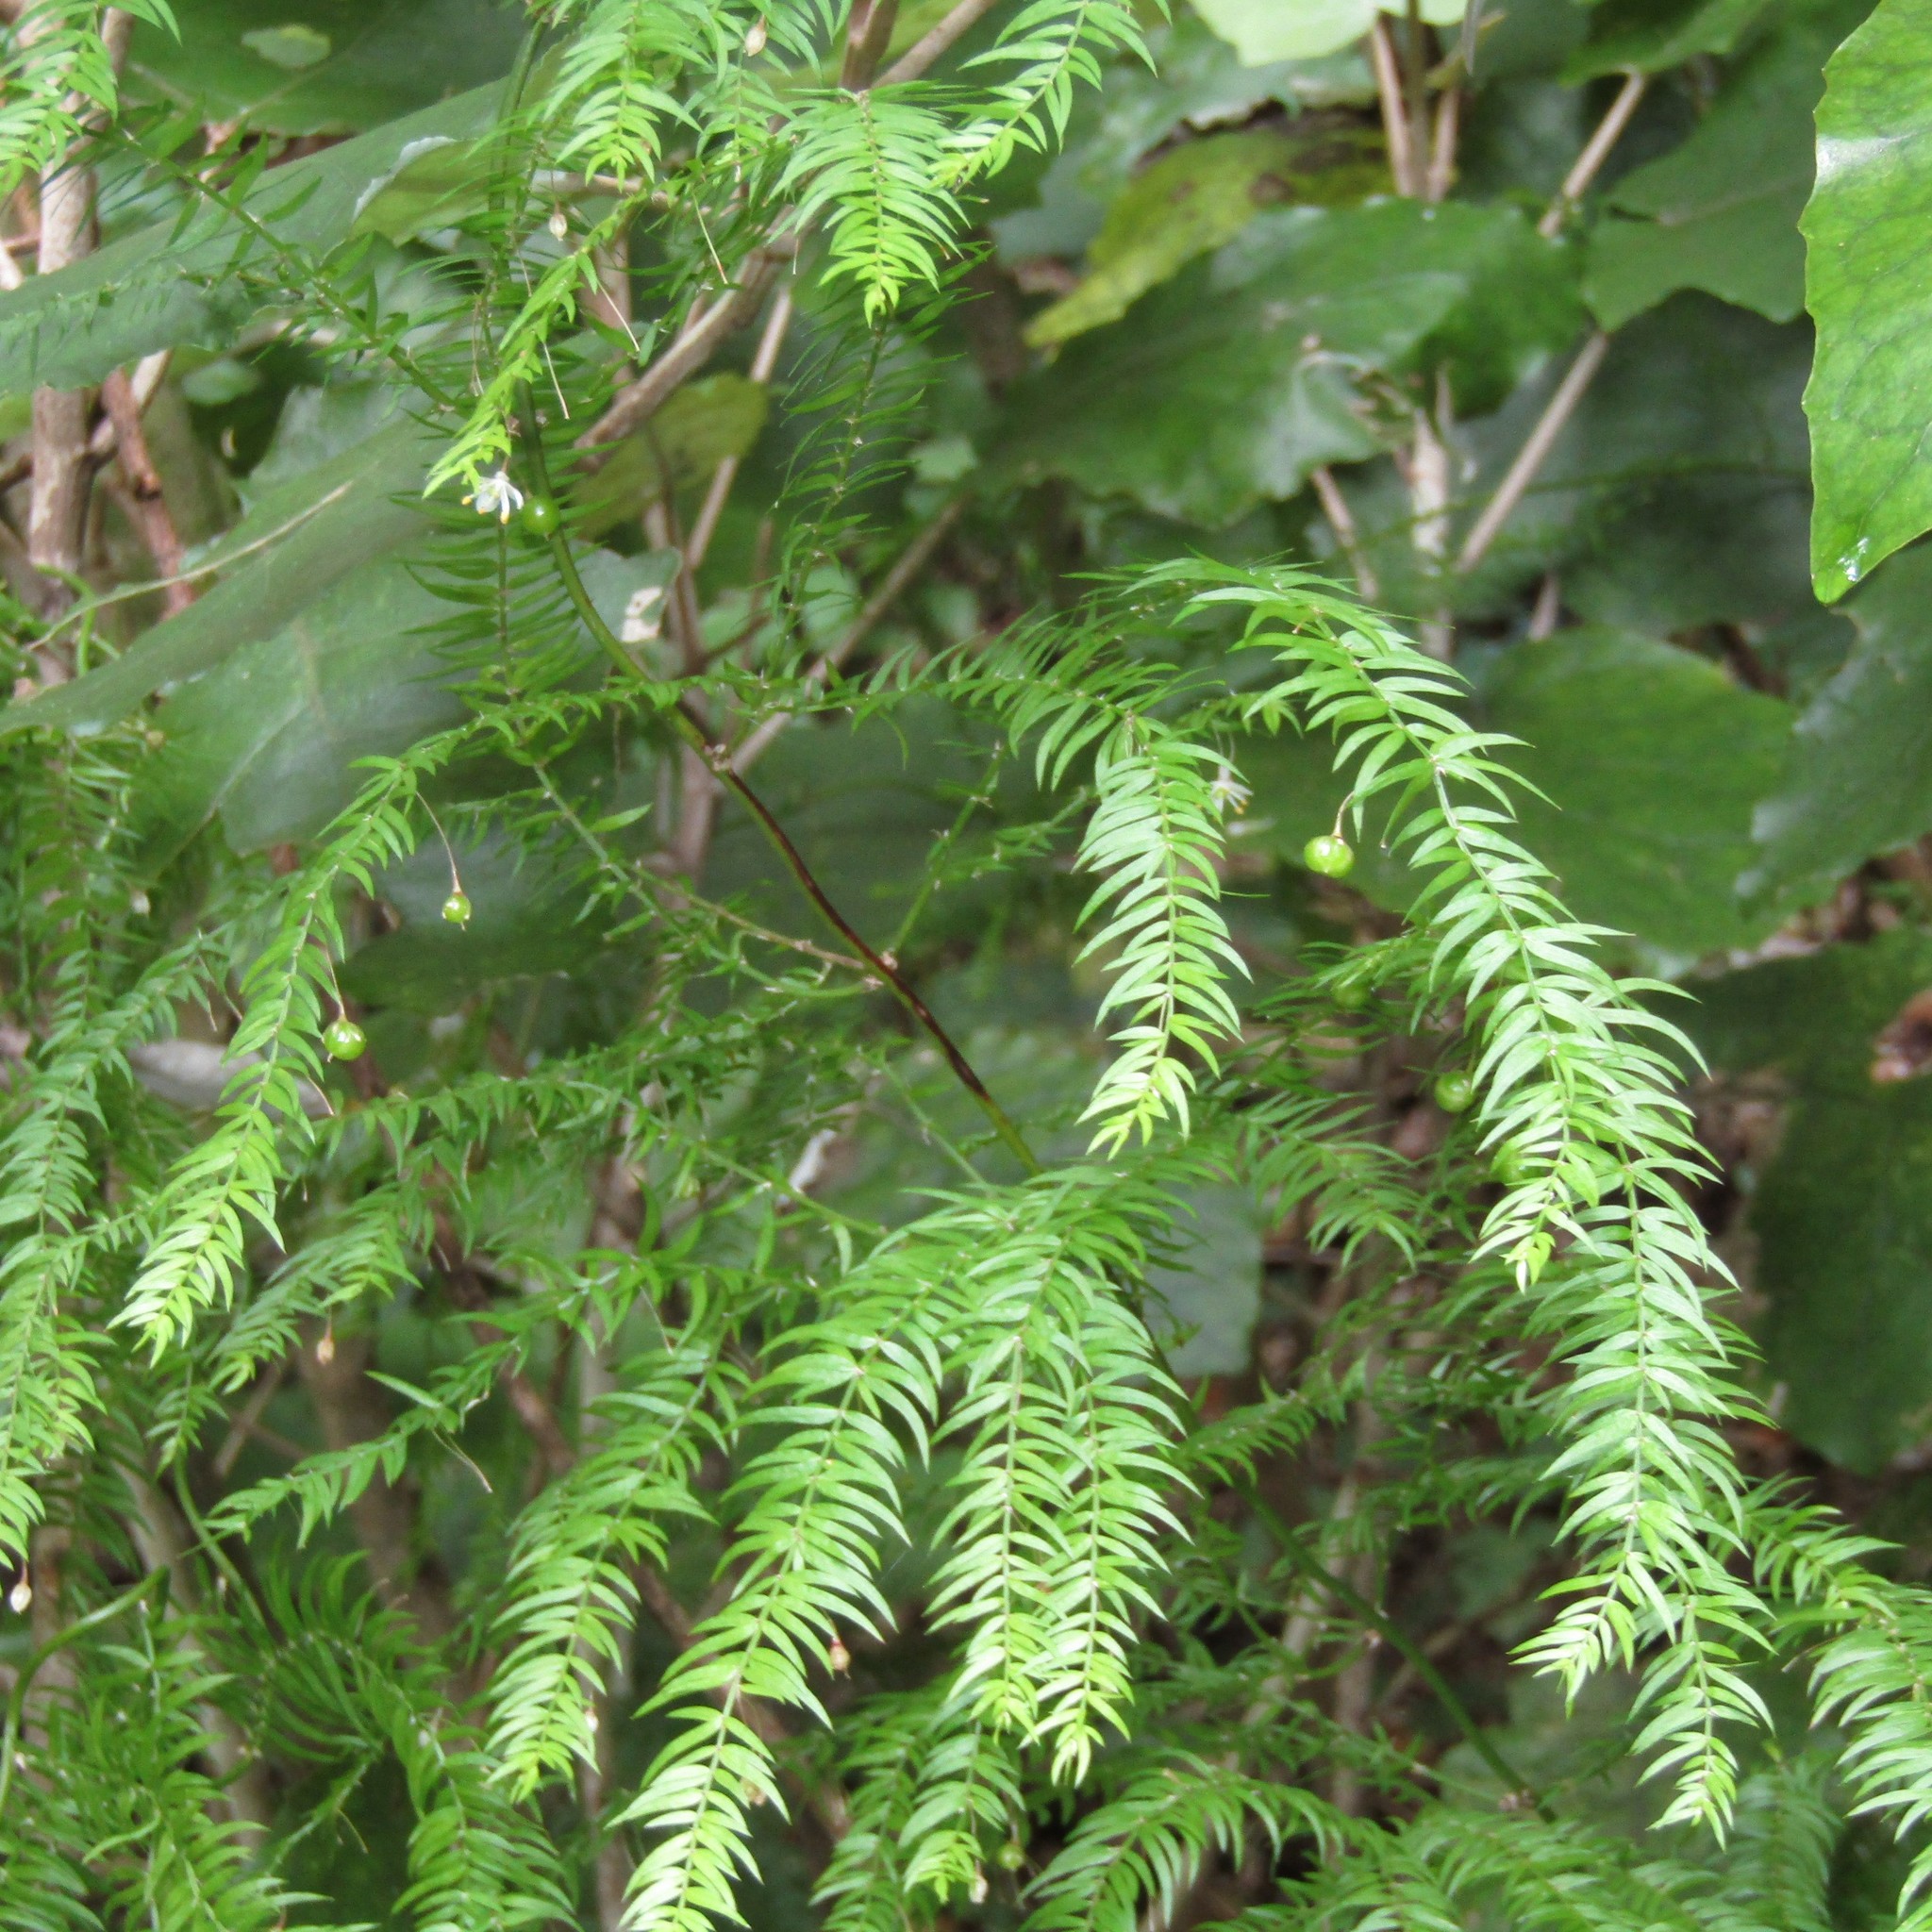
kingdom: Plantae
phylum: Tracheophyta
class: Liliopsida
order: Asparagales
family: Asparagaceae
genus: Asparagus
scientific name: Asparagus scandens
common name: Asparagus-fern
